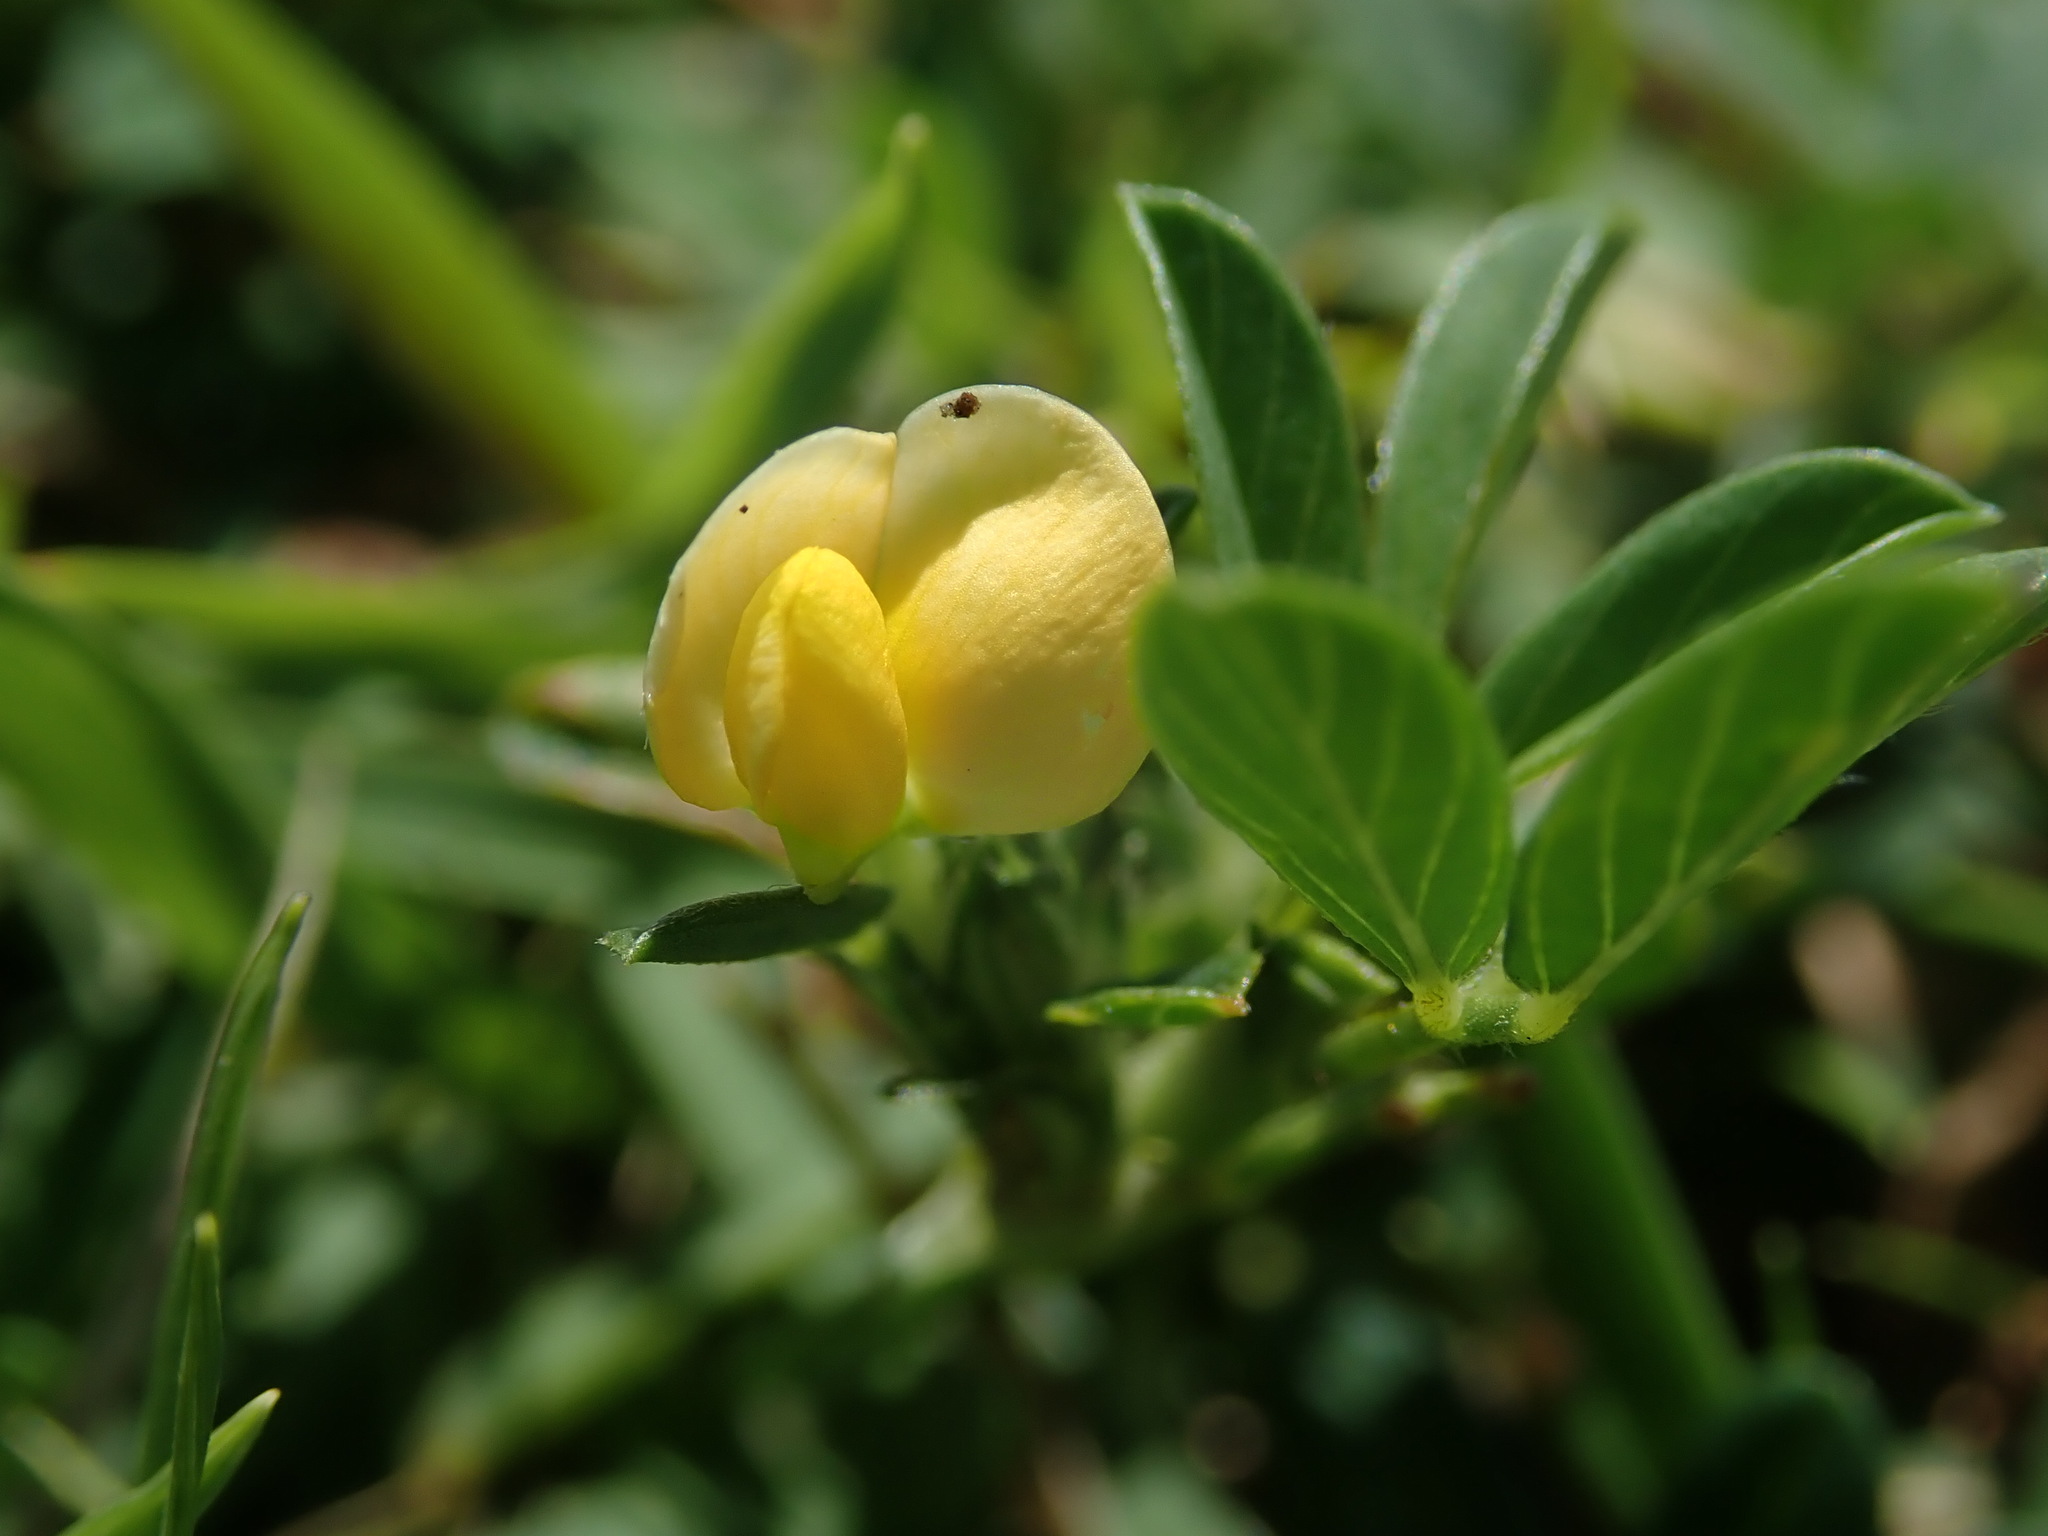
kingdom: Plantae
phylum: Tracheophyta
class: Magnoliopsida
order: Fabales
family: Fabaceae
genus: Stylosanthes
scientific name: Stylosanthes hamata
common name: Cheesytoes
